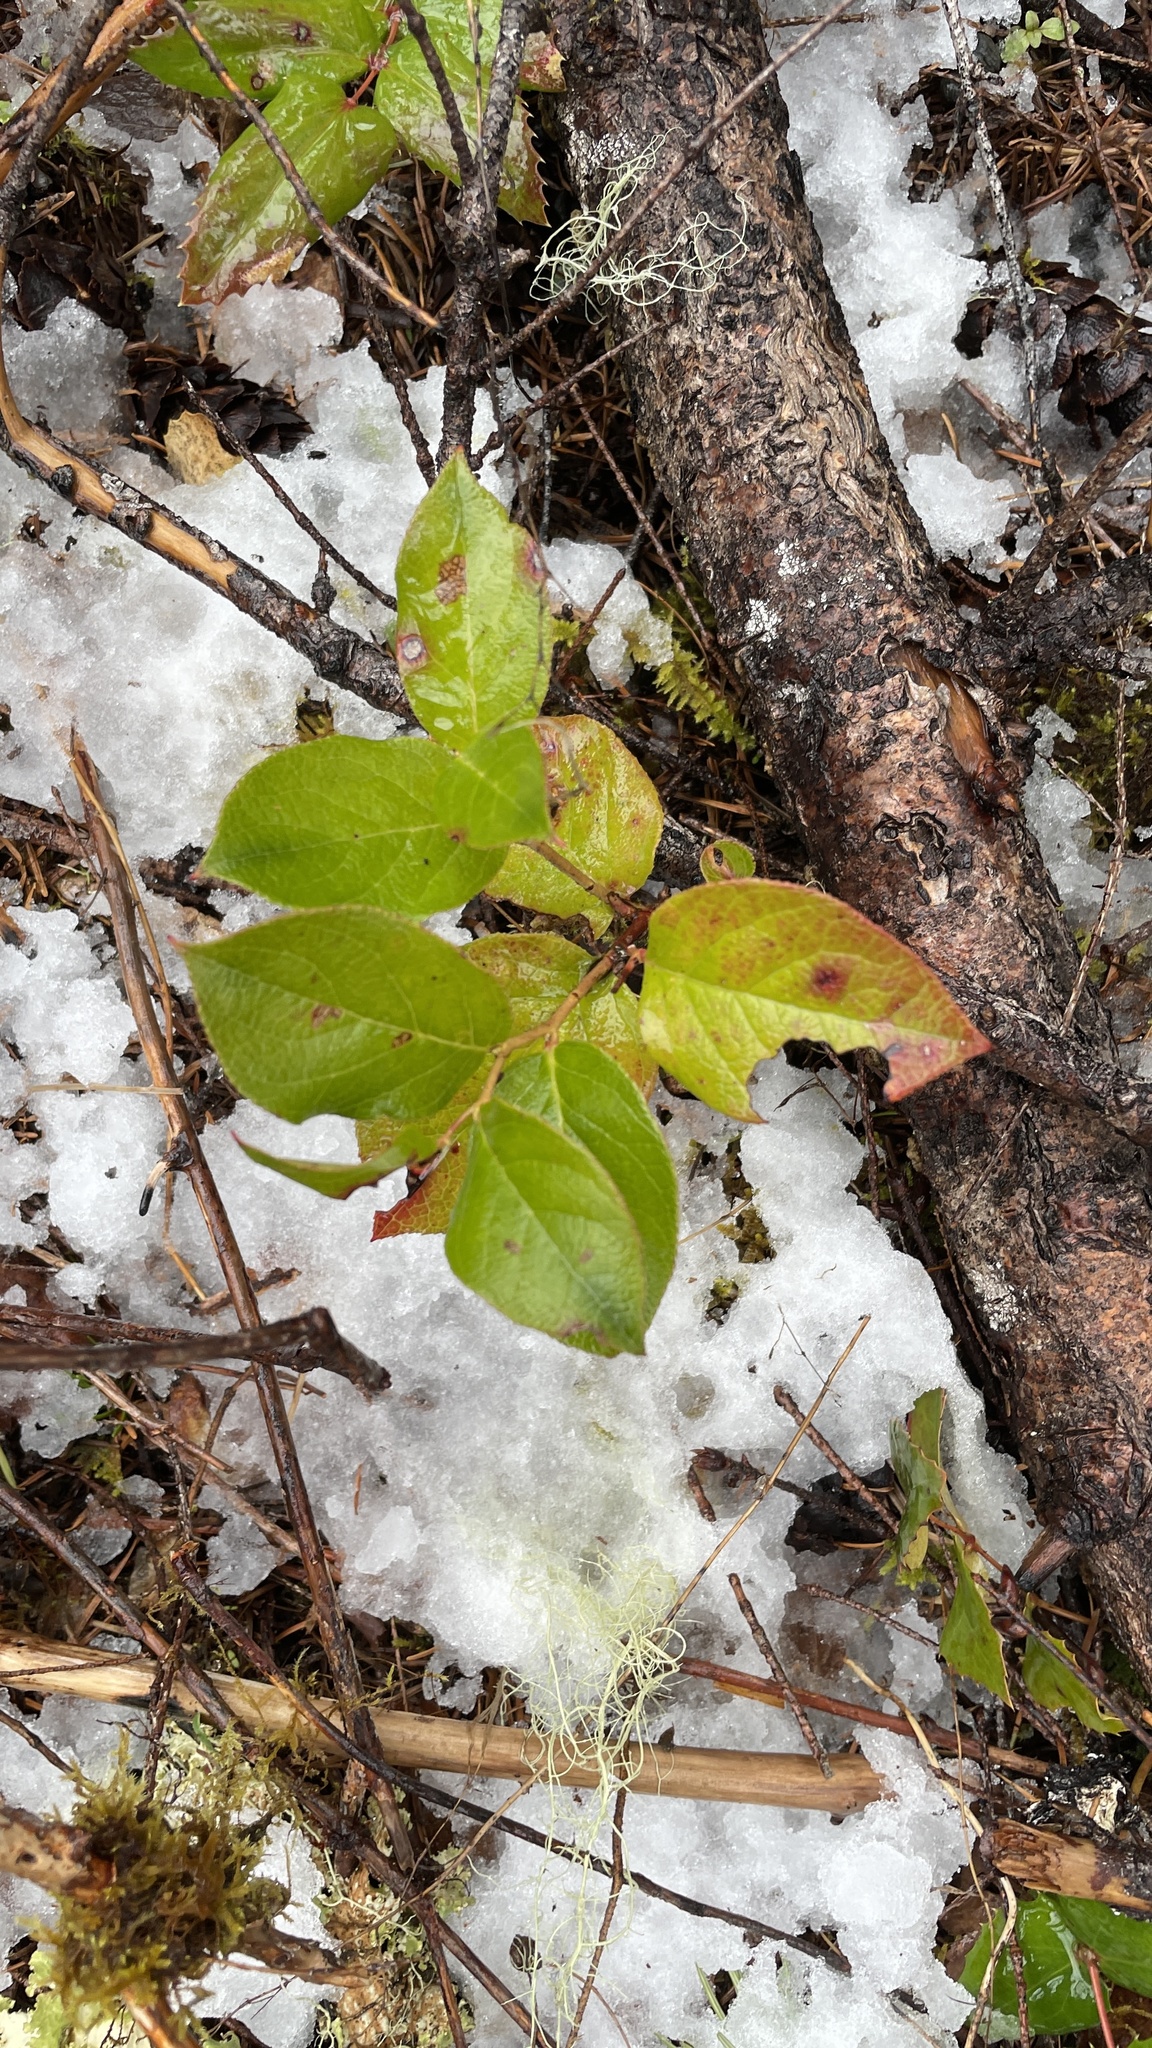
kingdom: Plantae
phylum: Tracheophyta
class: Magnoliopsida
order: Ericales
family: Ericaceae
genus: Gaultheria
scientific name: Gaultheria shallon
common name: Shallon
